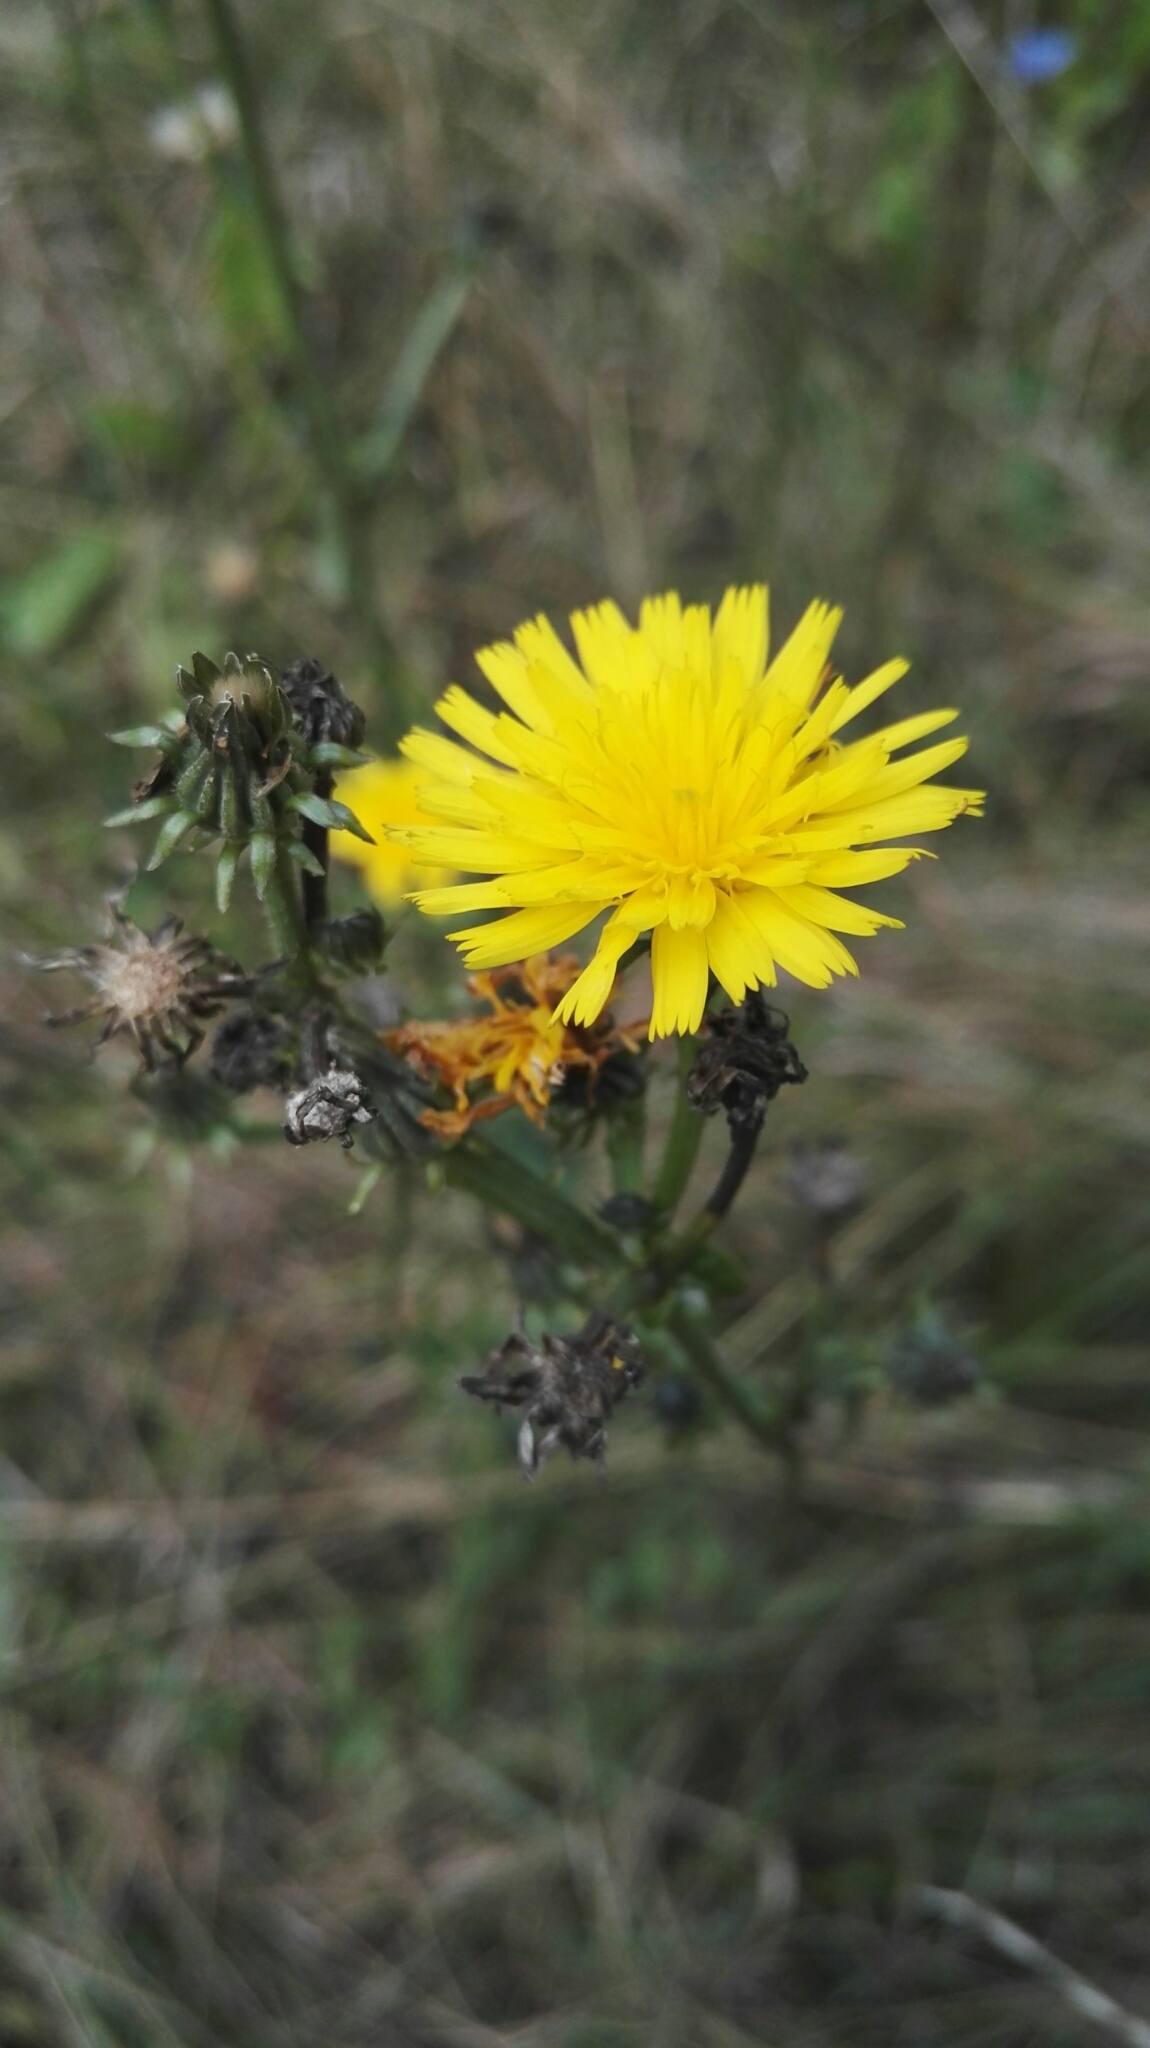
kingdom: Plantae
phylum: Tracheophyta
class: Magnoliopsida
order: Asterales
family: Asteraceae
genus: Picris
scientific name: Picris hieracioides
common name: Hawkweed oxtongue
